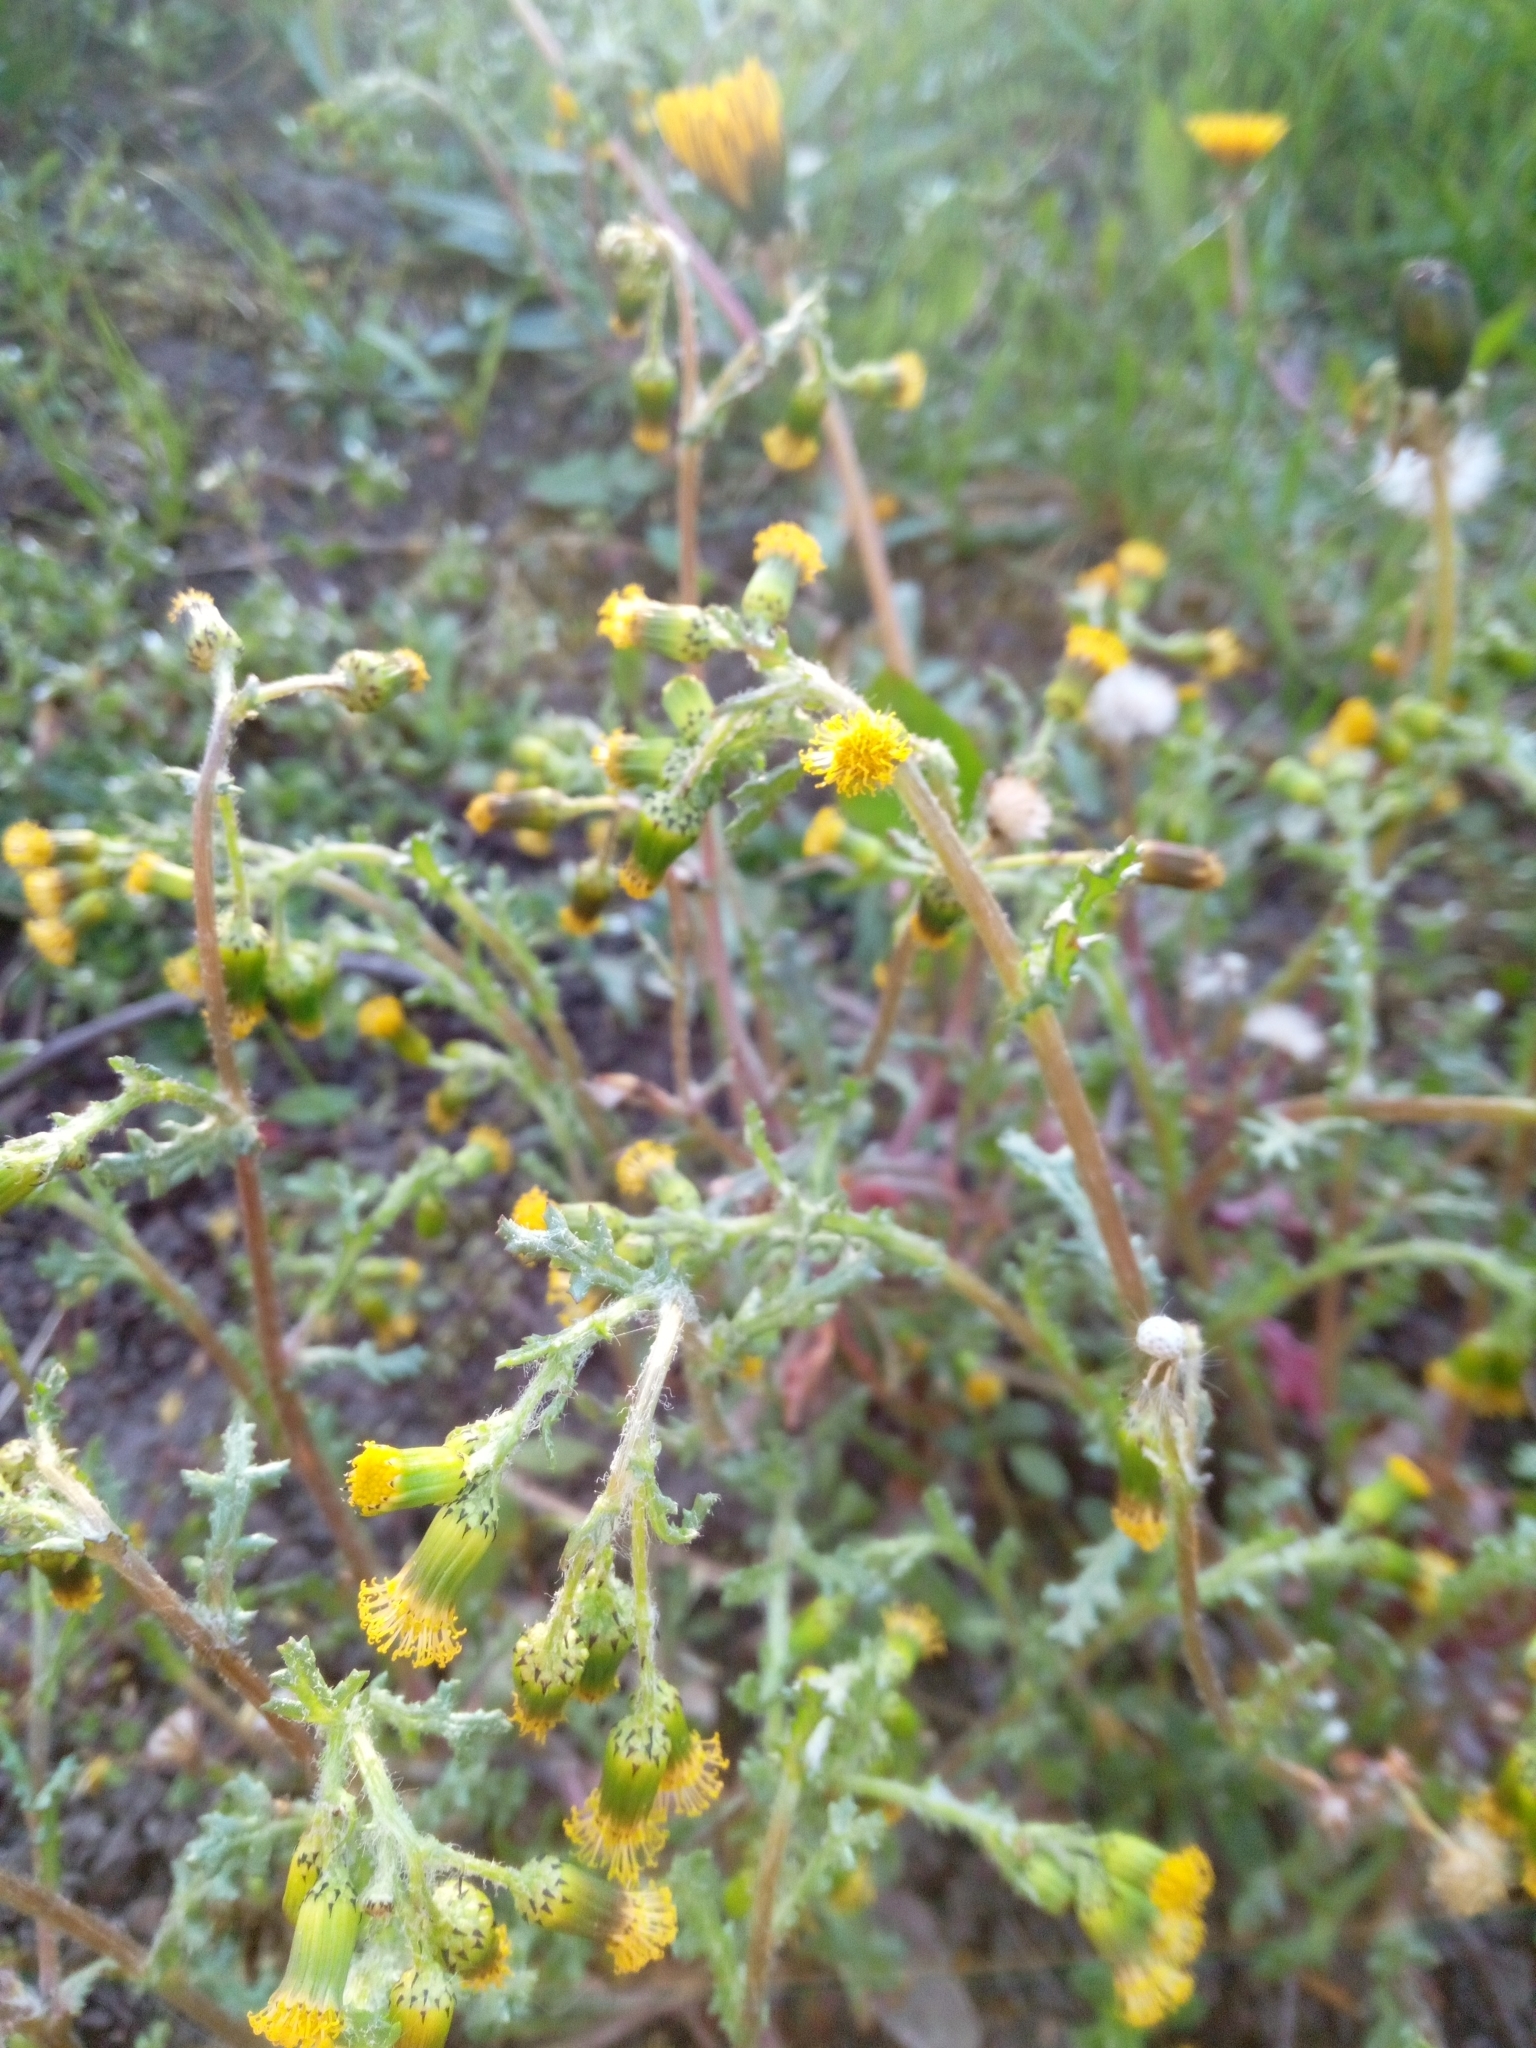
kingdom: Plantae
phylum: Tracheophyta
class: Magnoliopsida
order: Asterales
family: Asteraceae
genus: Senecio
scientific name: Senecio vulgaris
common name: Old-man-in-the-spring
